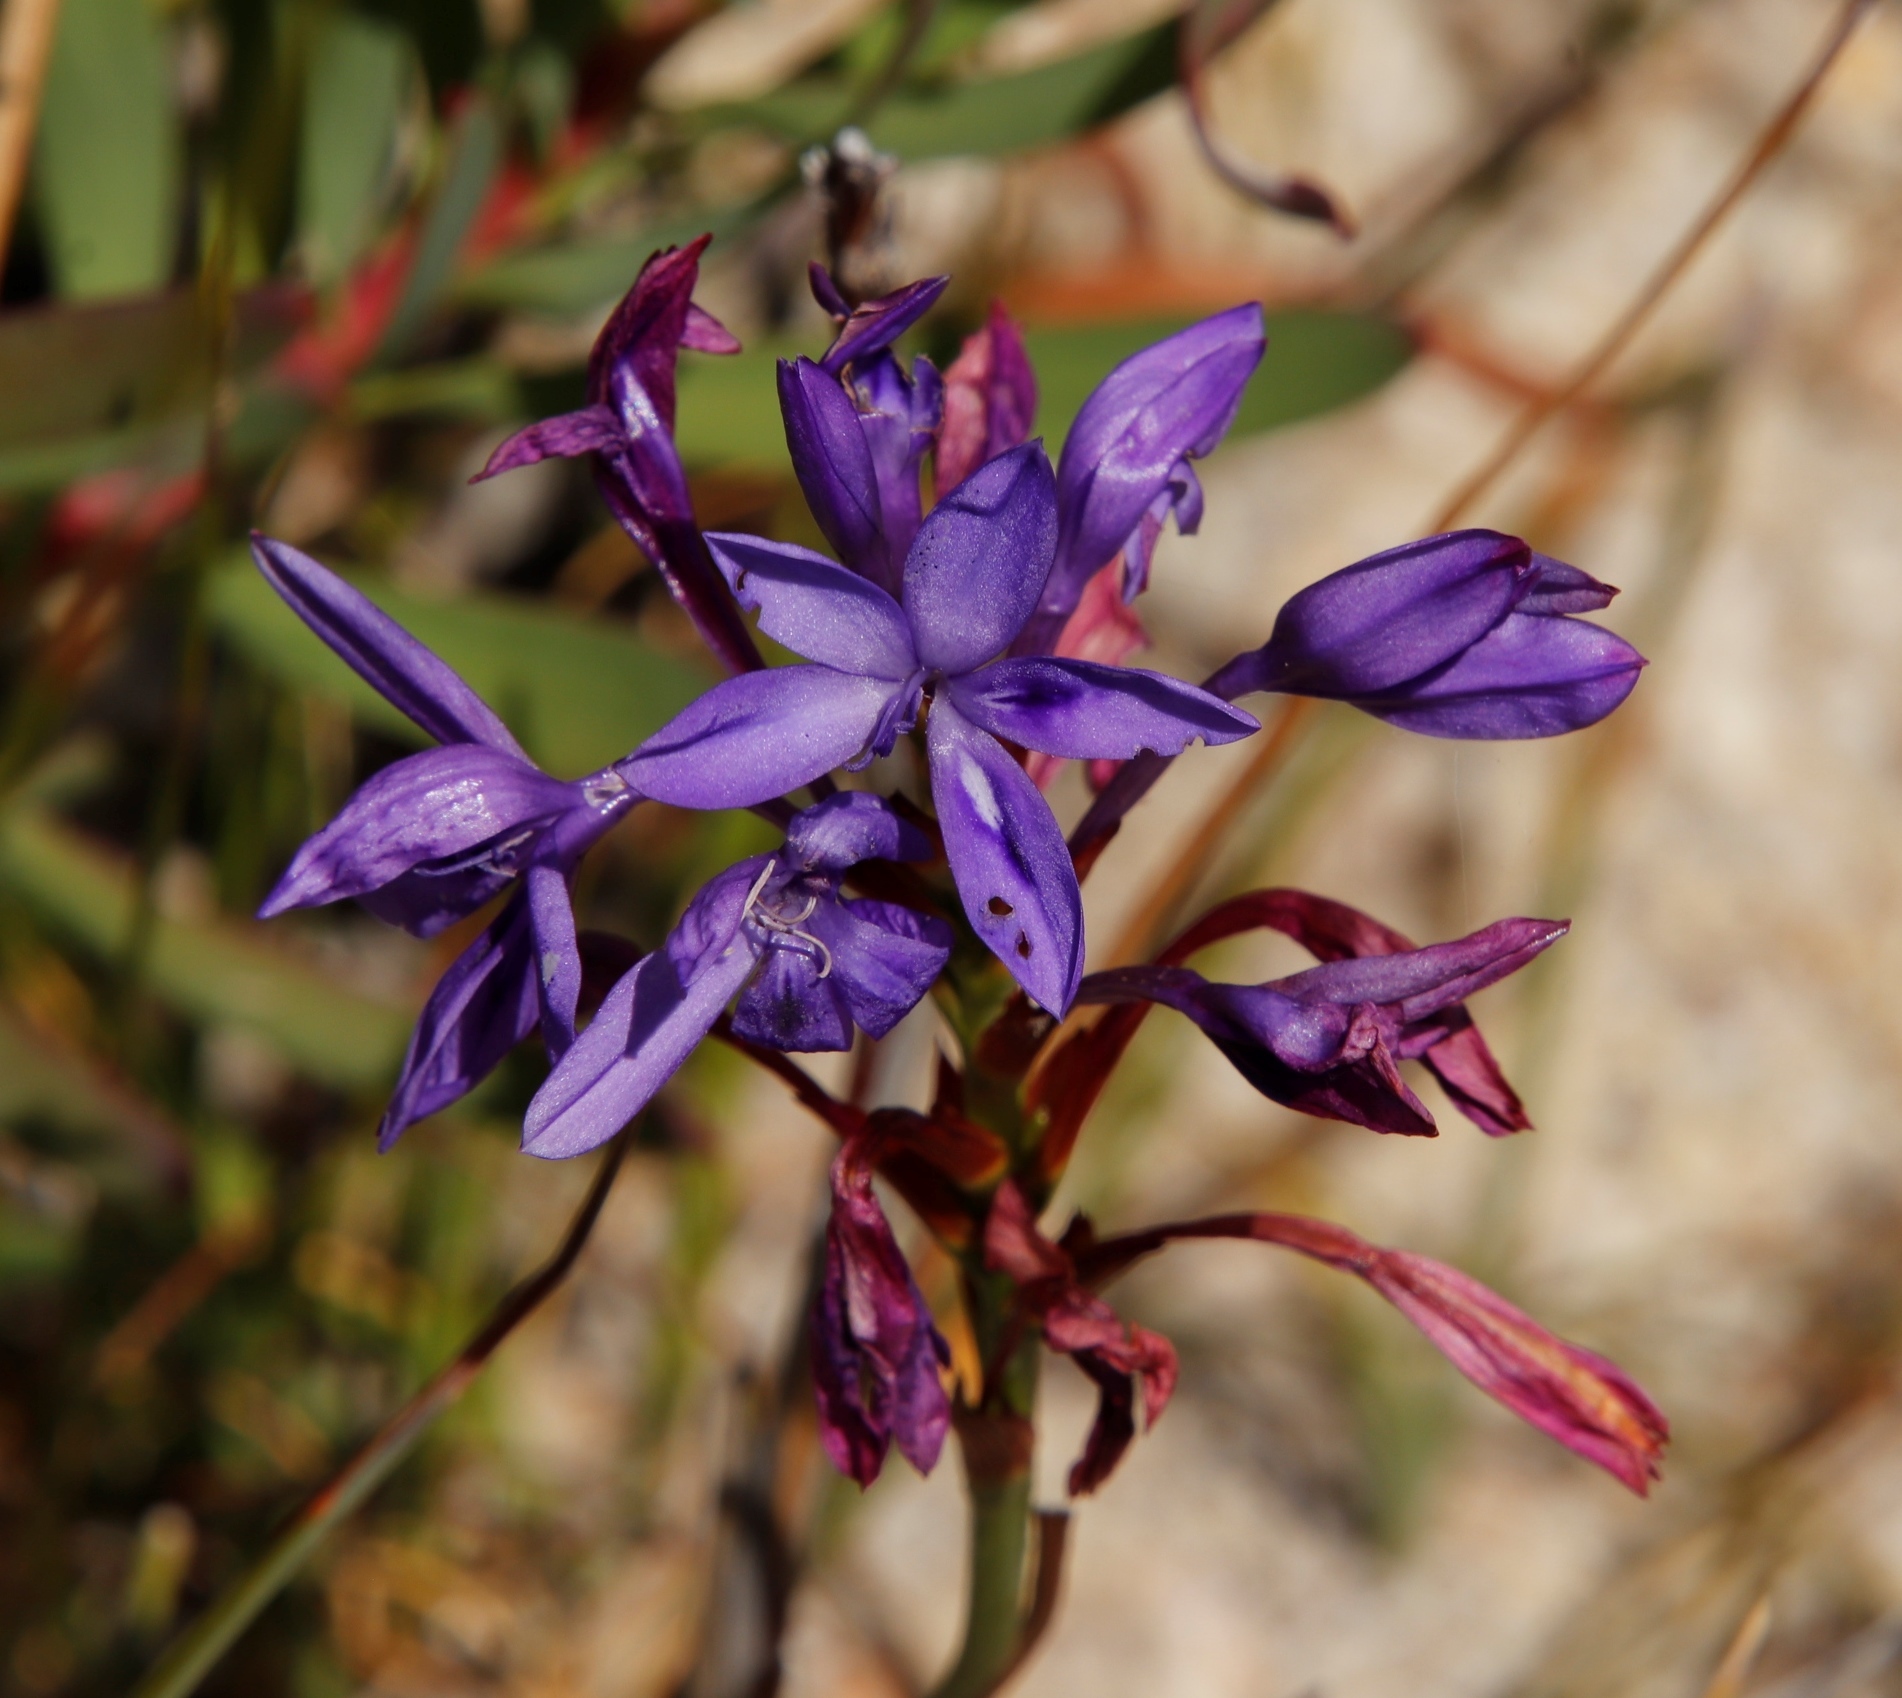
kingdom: Plantae
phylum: Tracheophyta
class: Liliopsida
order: Asparagales
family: Iridaceae
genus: Thereianthus
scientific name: Thereianthus spicatus
